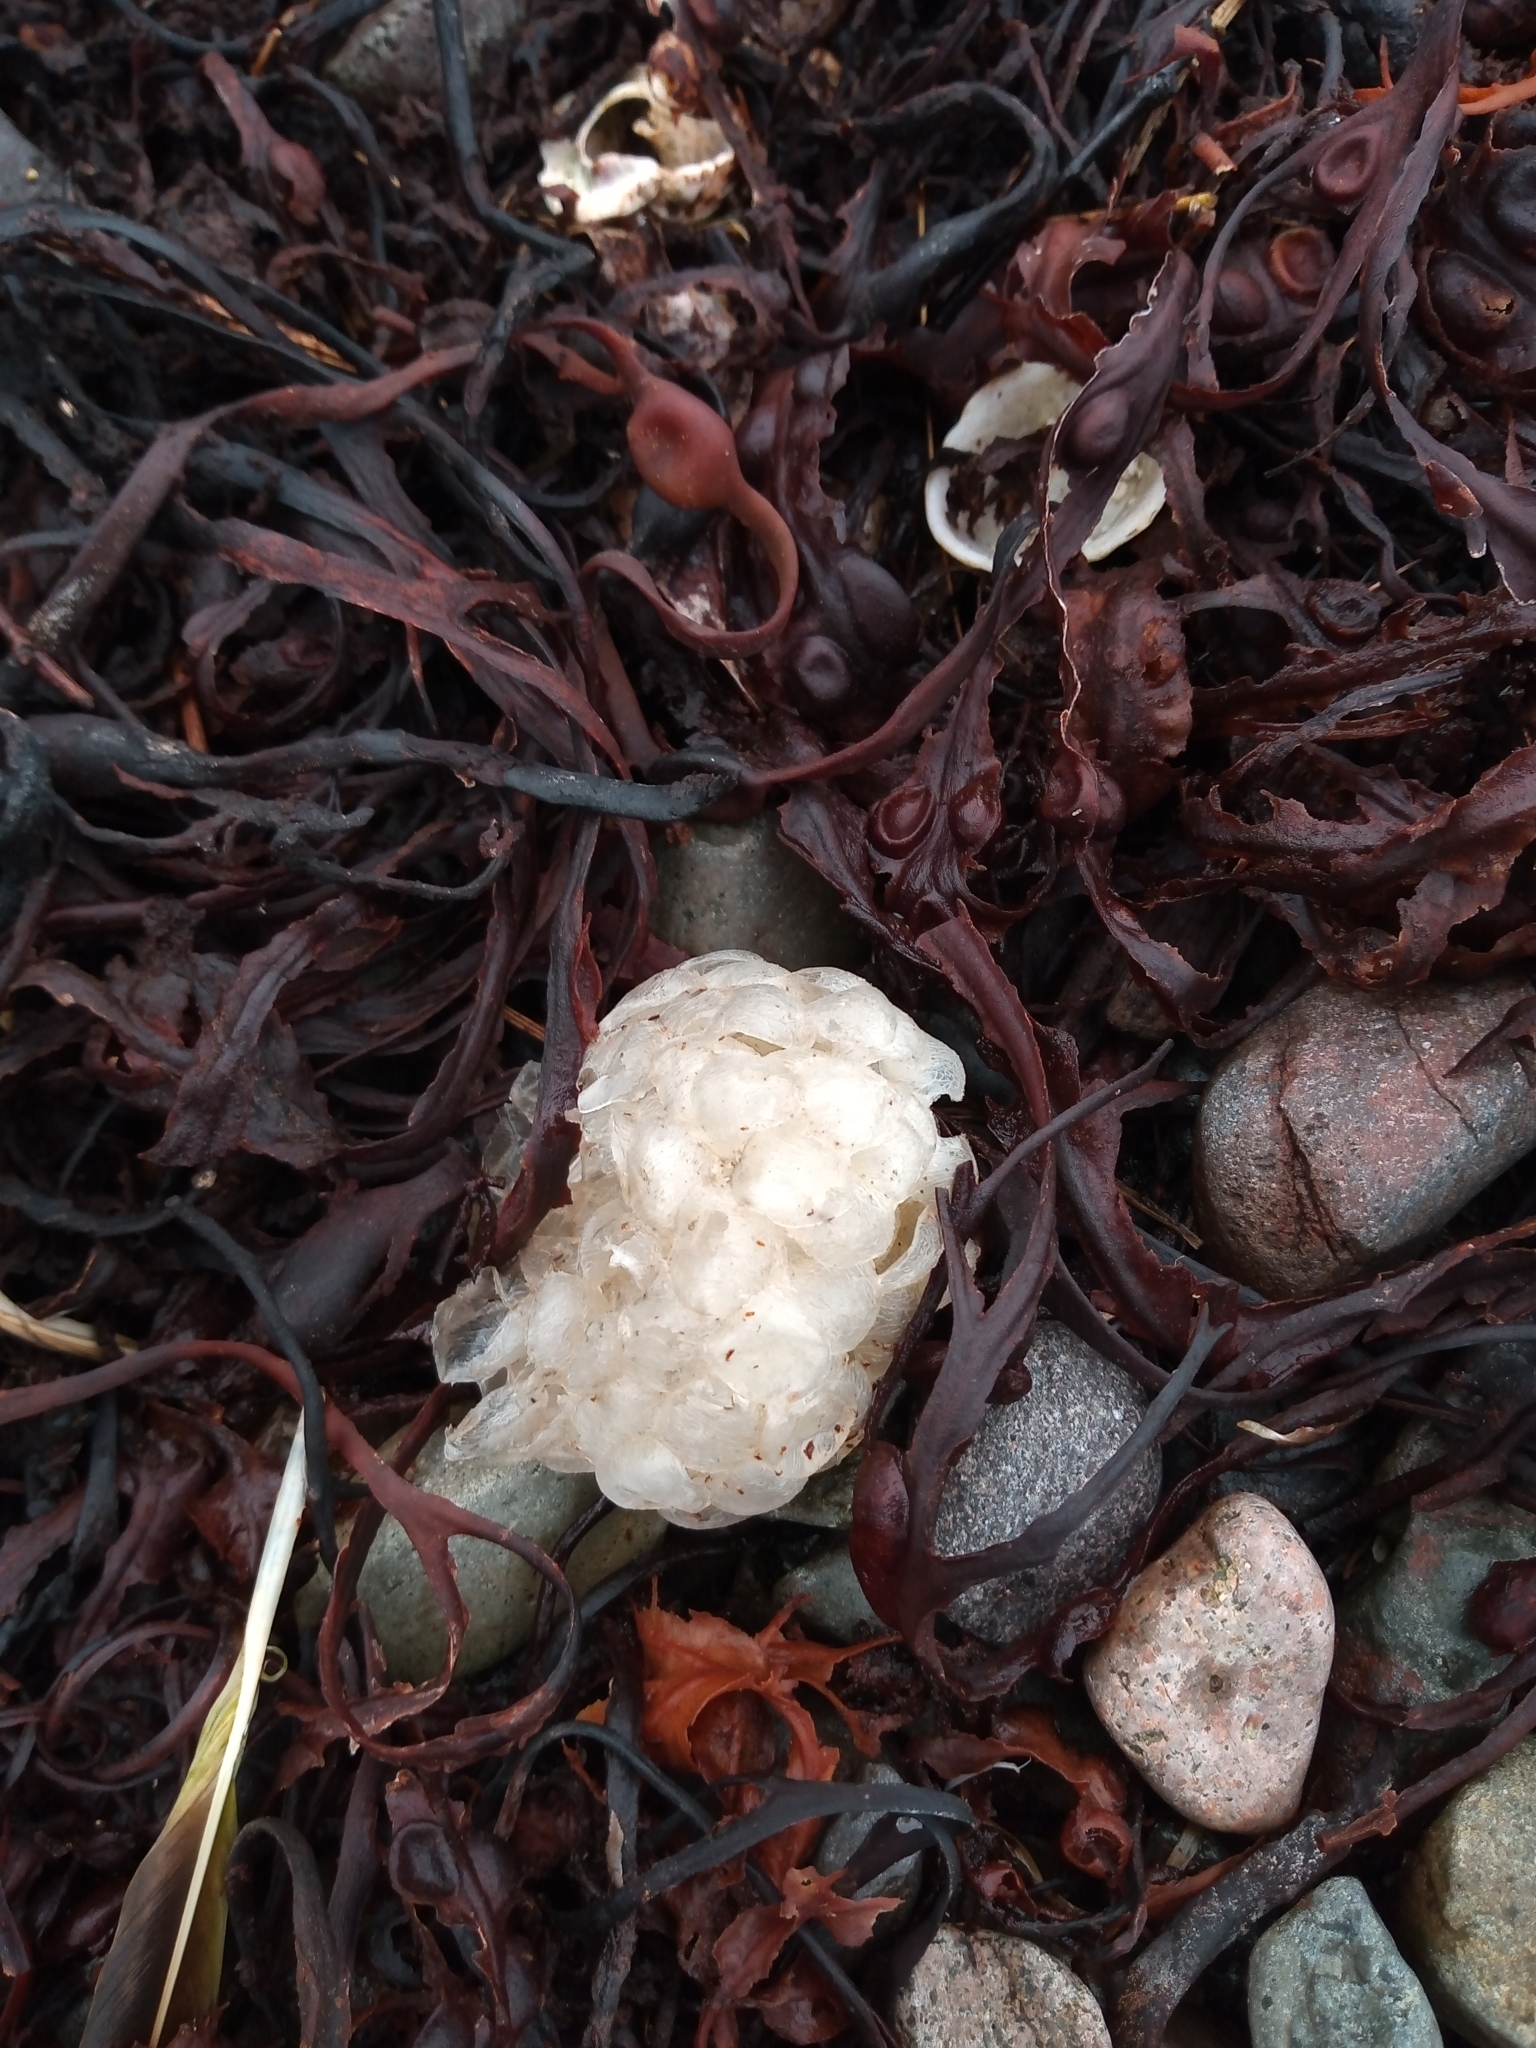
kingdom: Animalia
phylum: Mollusca
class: Gastropoda
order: Neogastropoda
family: Buccinidae
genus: Buccinum
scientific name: Buccinum undatum
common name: Common whelk
